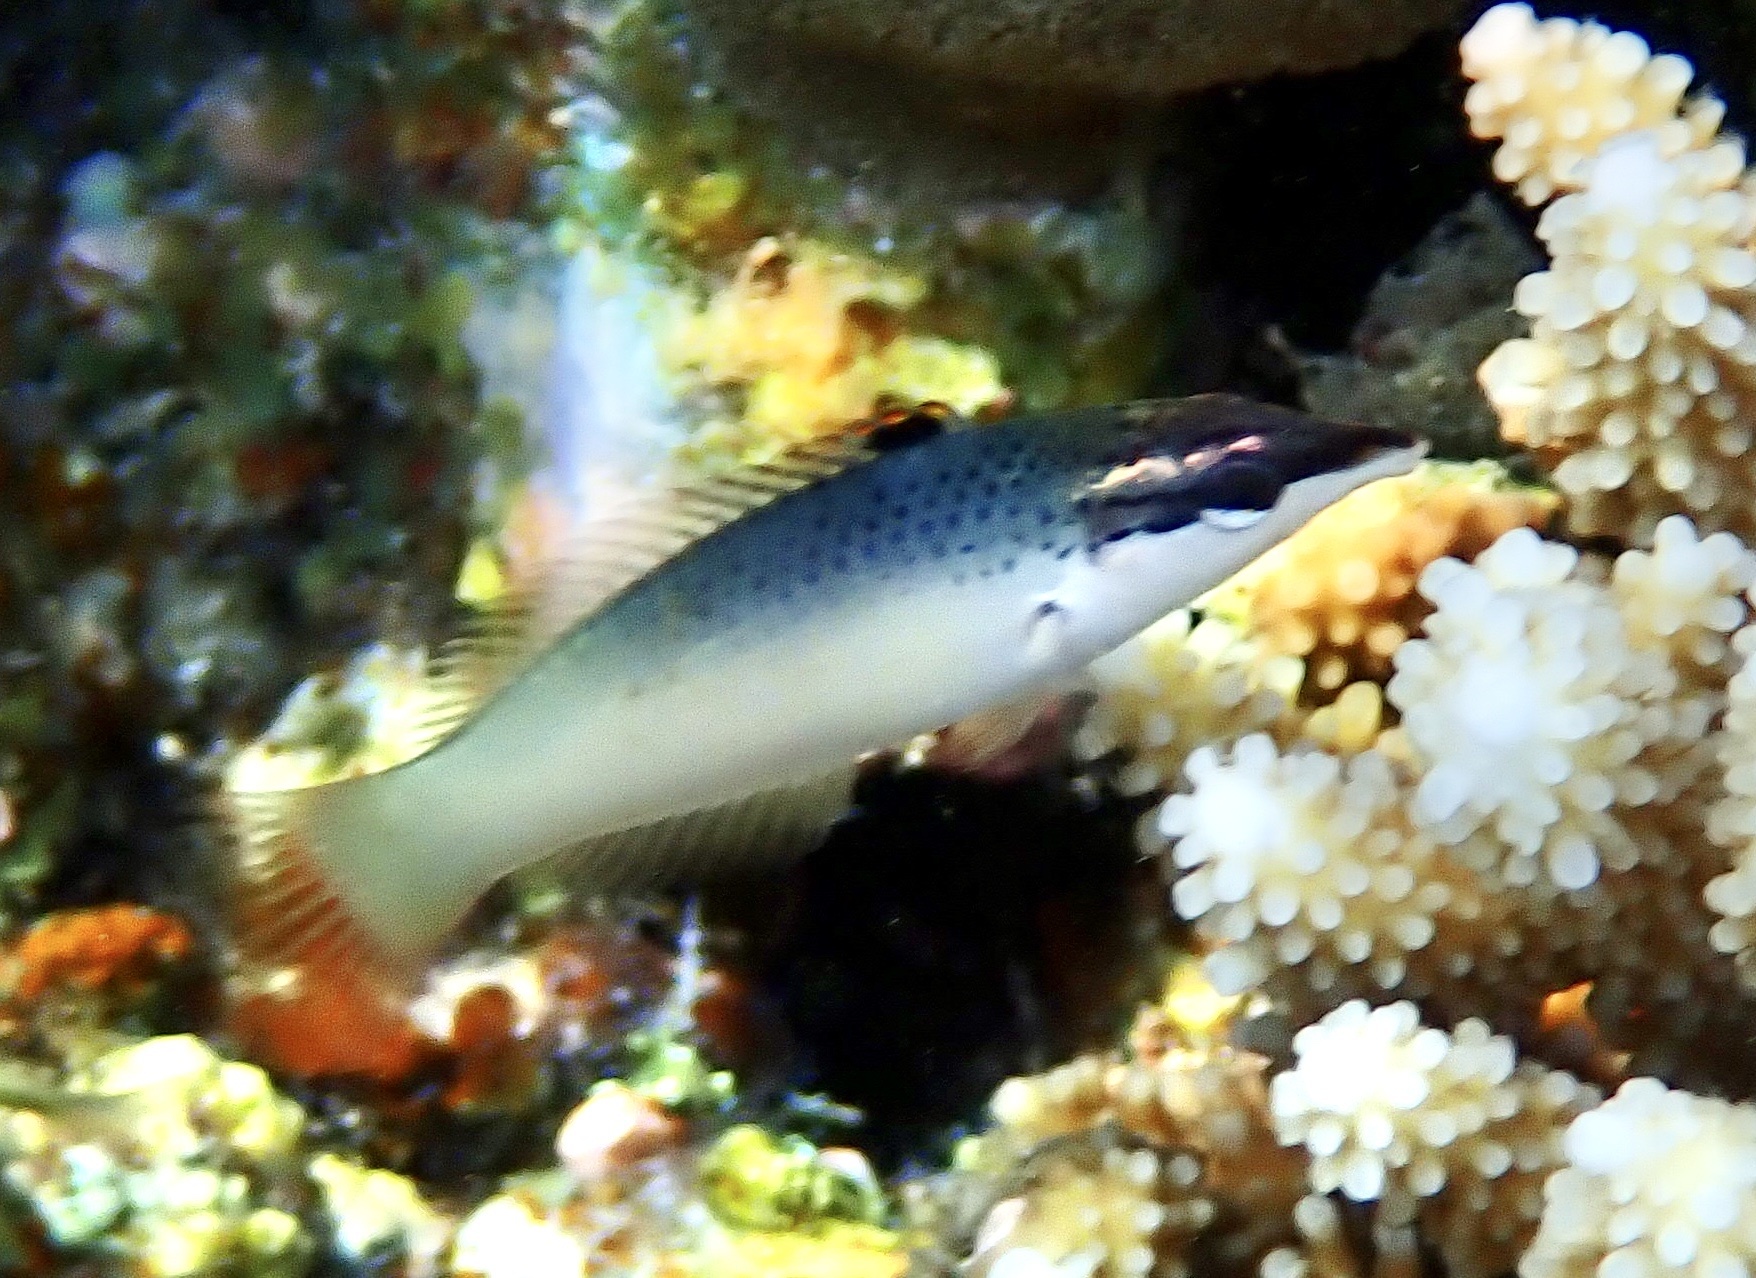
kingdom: Animalia
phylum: Chordata
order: Perciformes
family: Labridae
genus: Gomphosus
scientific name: Gomphosus klunzingeri
